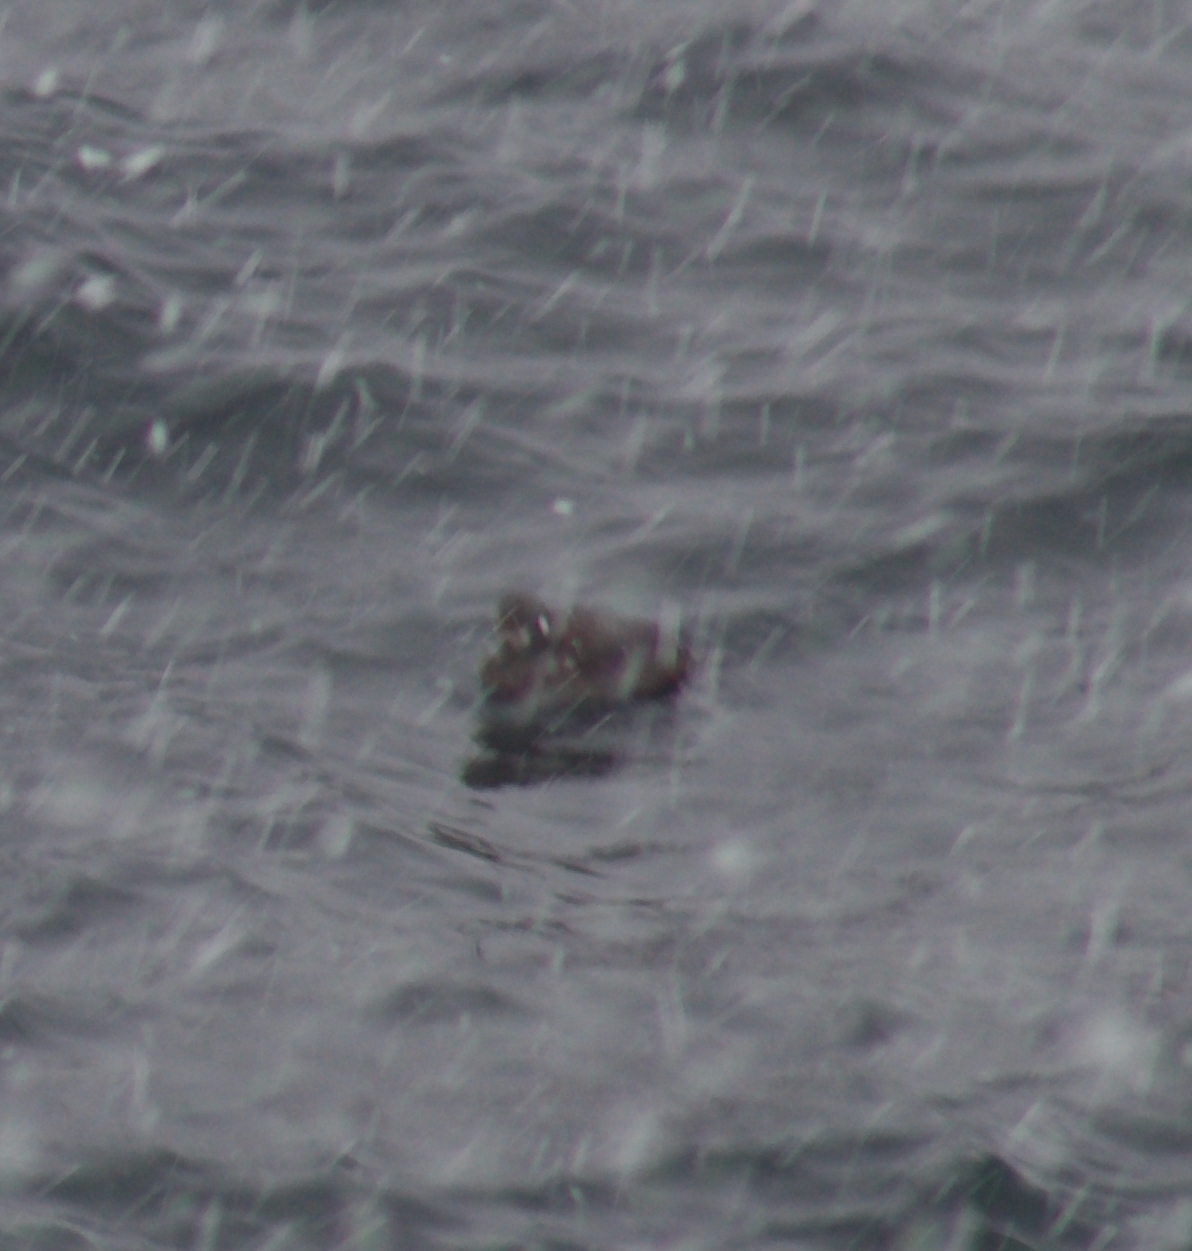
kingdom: Animalia
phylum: Chordata
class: Aves
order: Anseriformes
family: Anatidae
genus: Histrionicus
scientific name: Histrionicus histrionicus
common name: Harlequin duck
